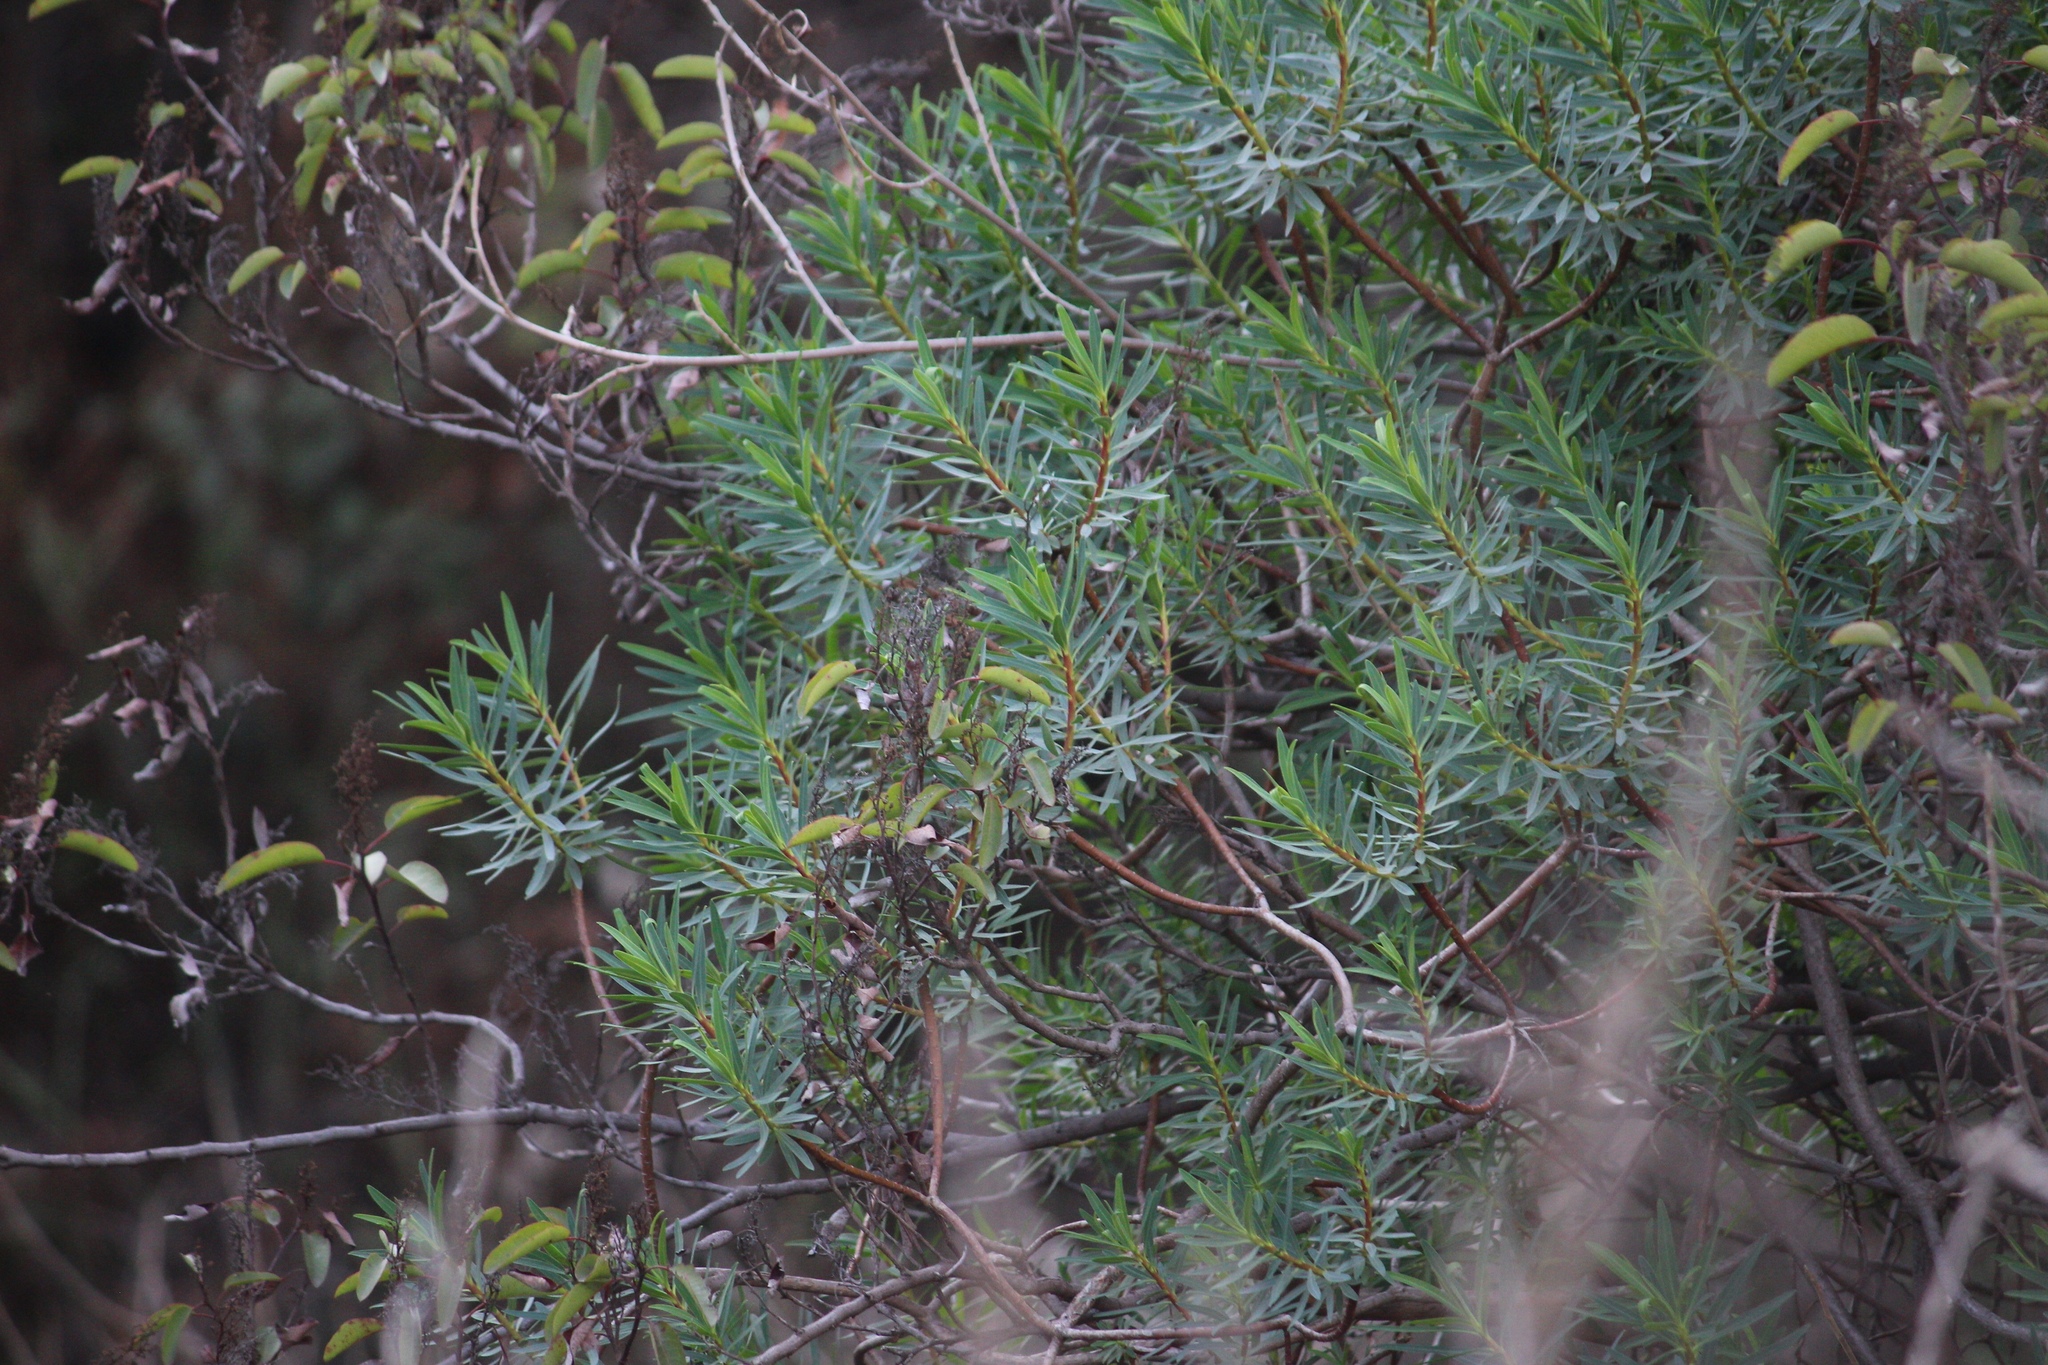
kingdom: Plantae
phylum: Tracheophyta
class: Magnoliopsida
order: Malpighiales
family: Euphorbiaceae
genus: Euphorbia
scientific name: Euphorbia dendroides
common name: Tree spurge
